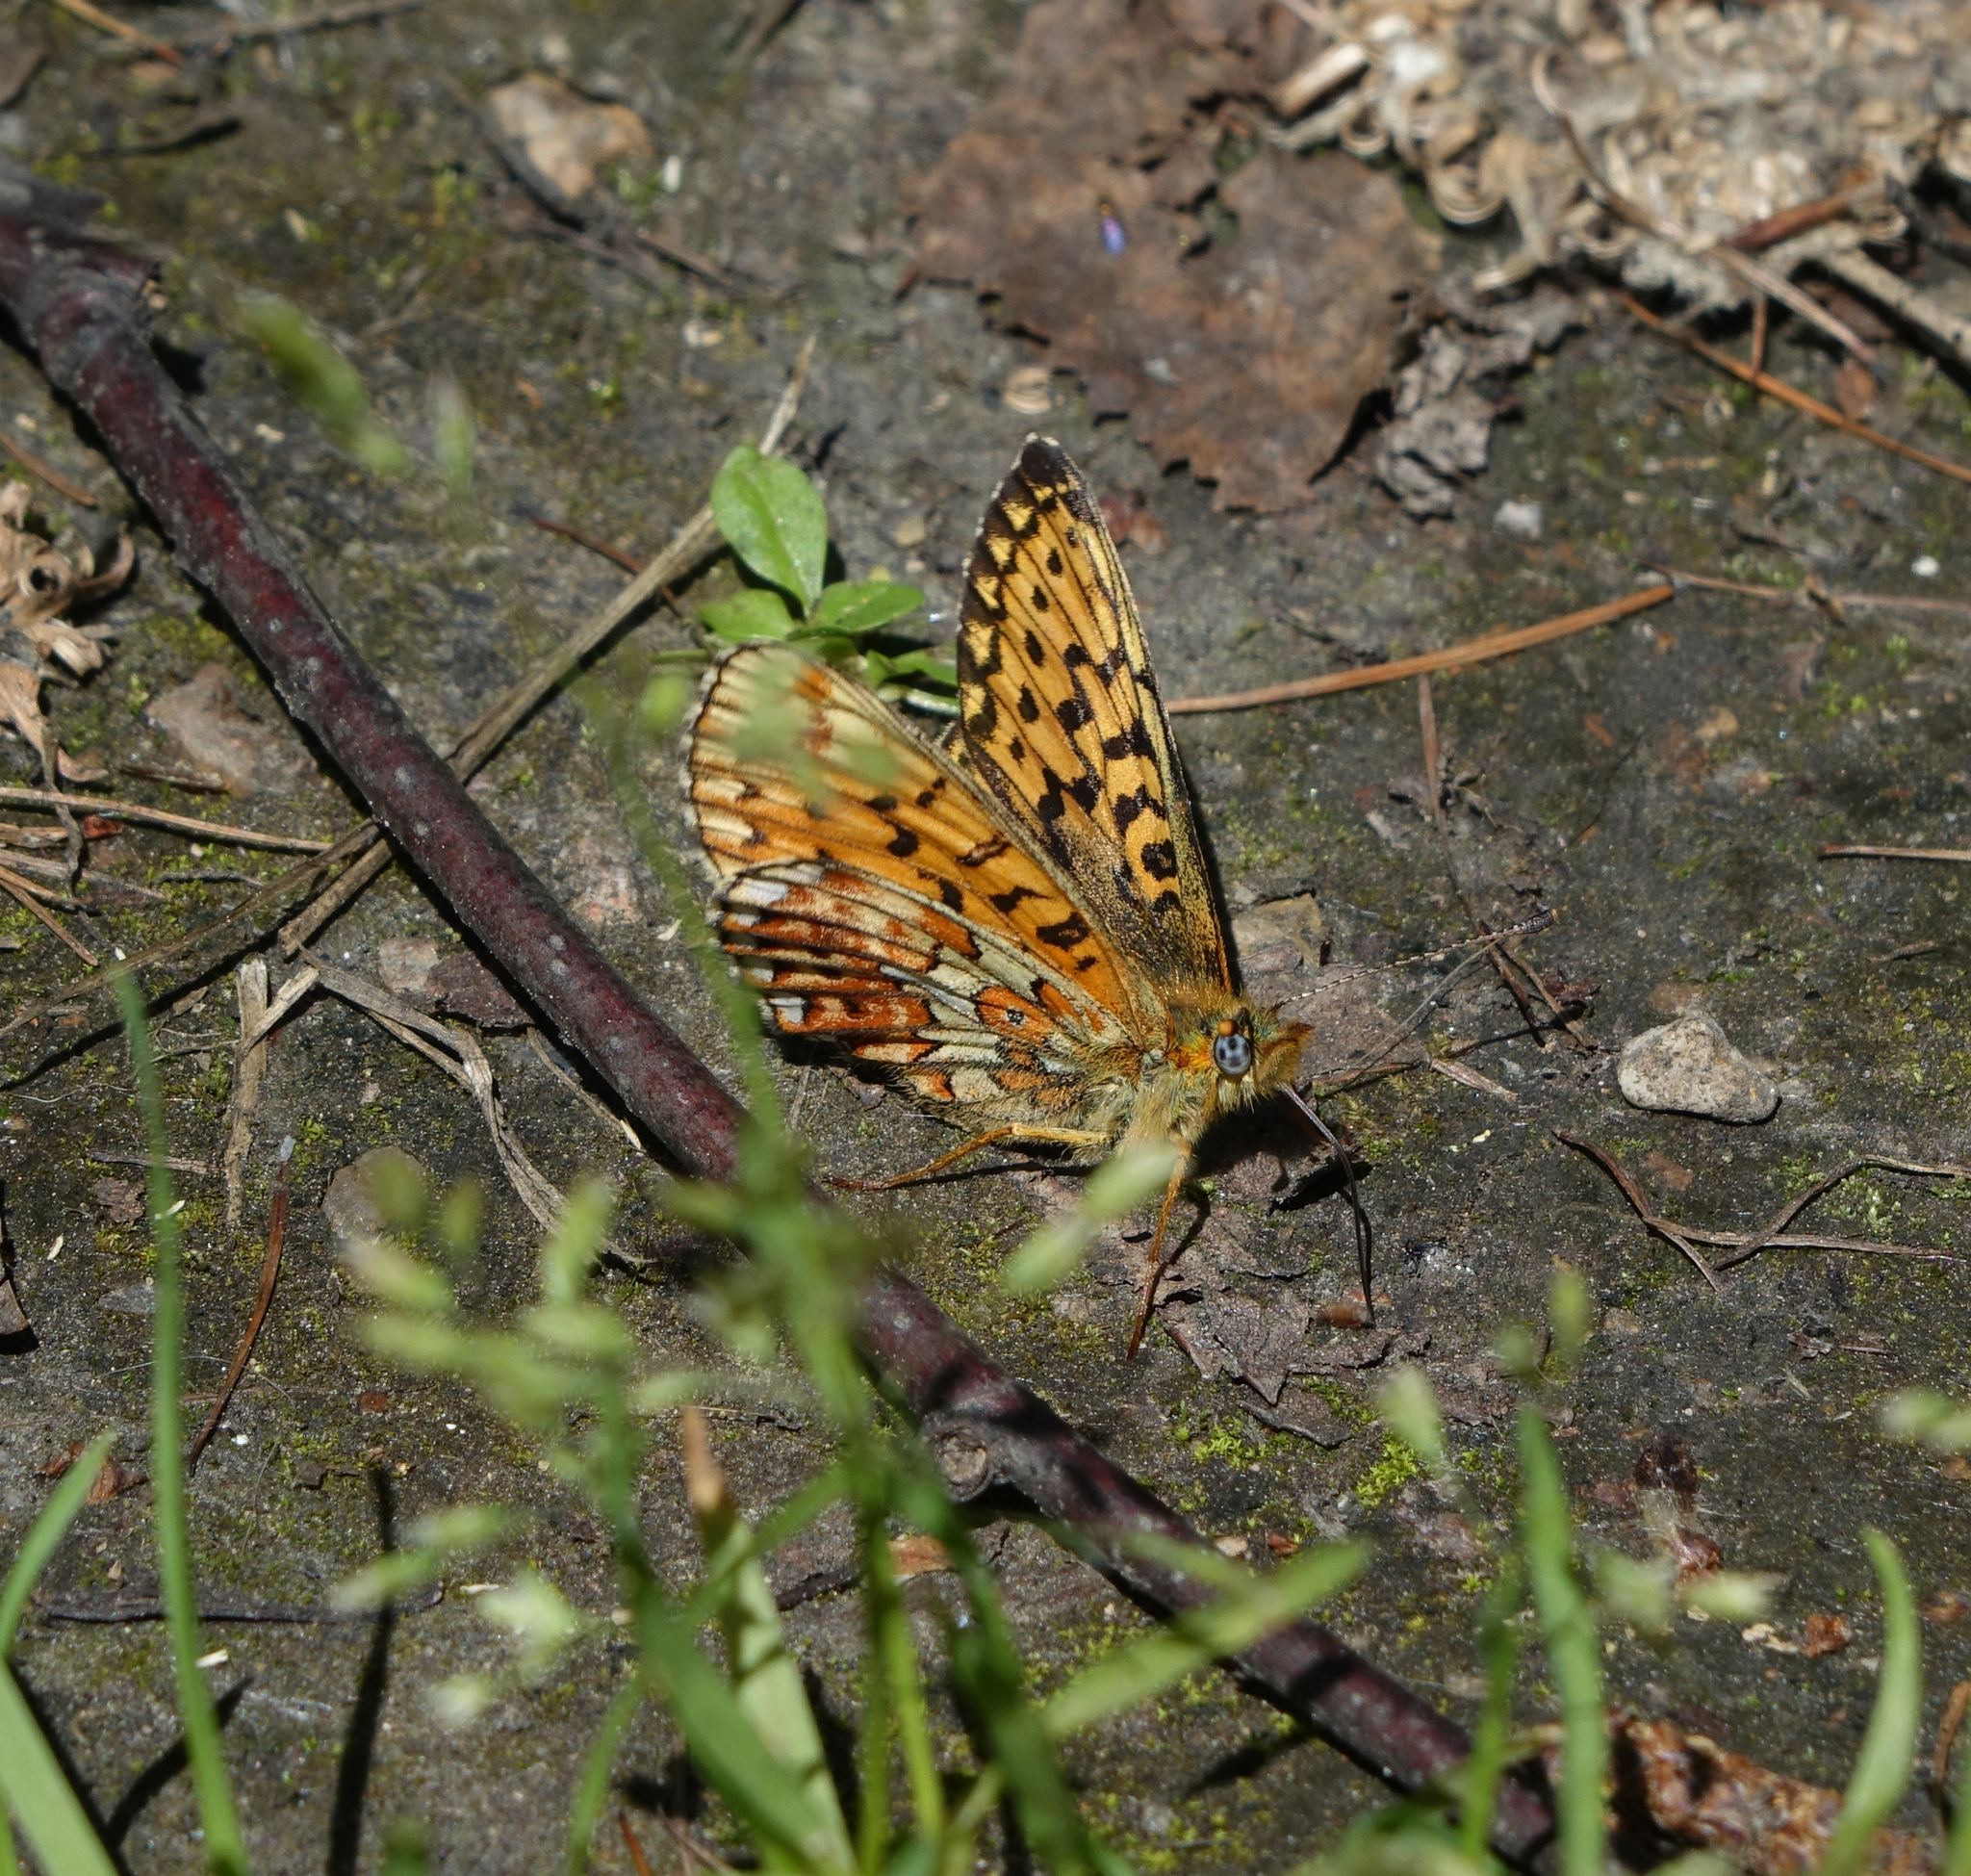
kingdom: Animalia
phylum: Arthropoda
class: Insecta
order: Lepidoptera
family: Nymphalidae
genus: Clossiana
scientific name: Clossiana euphrosyne
